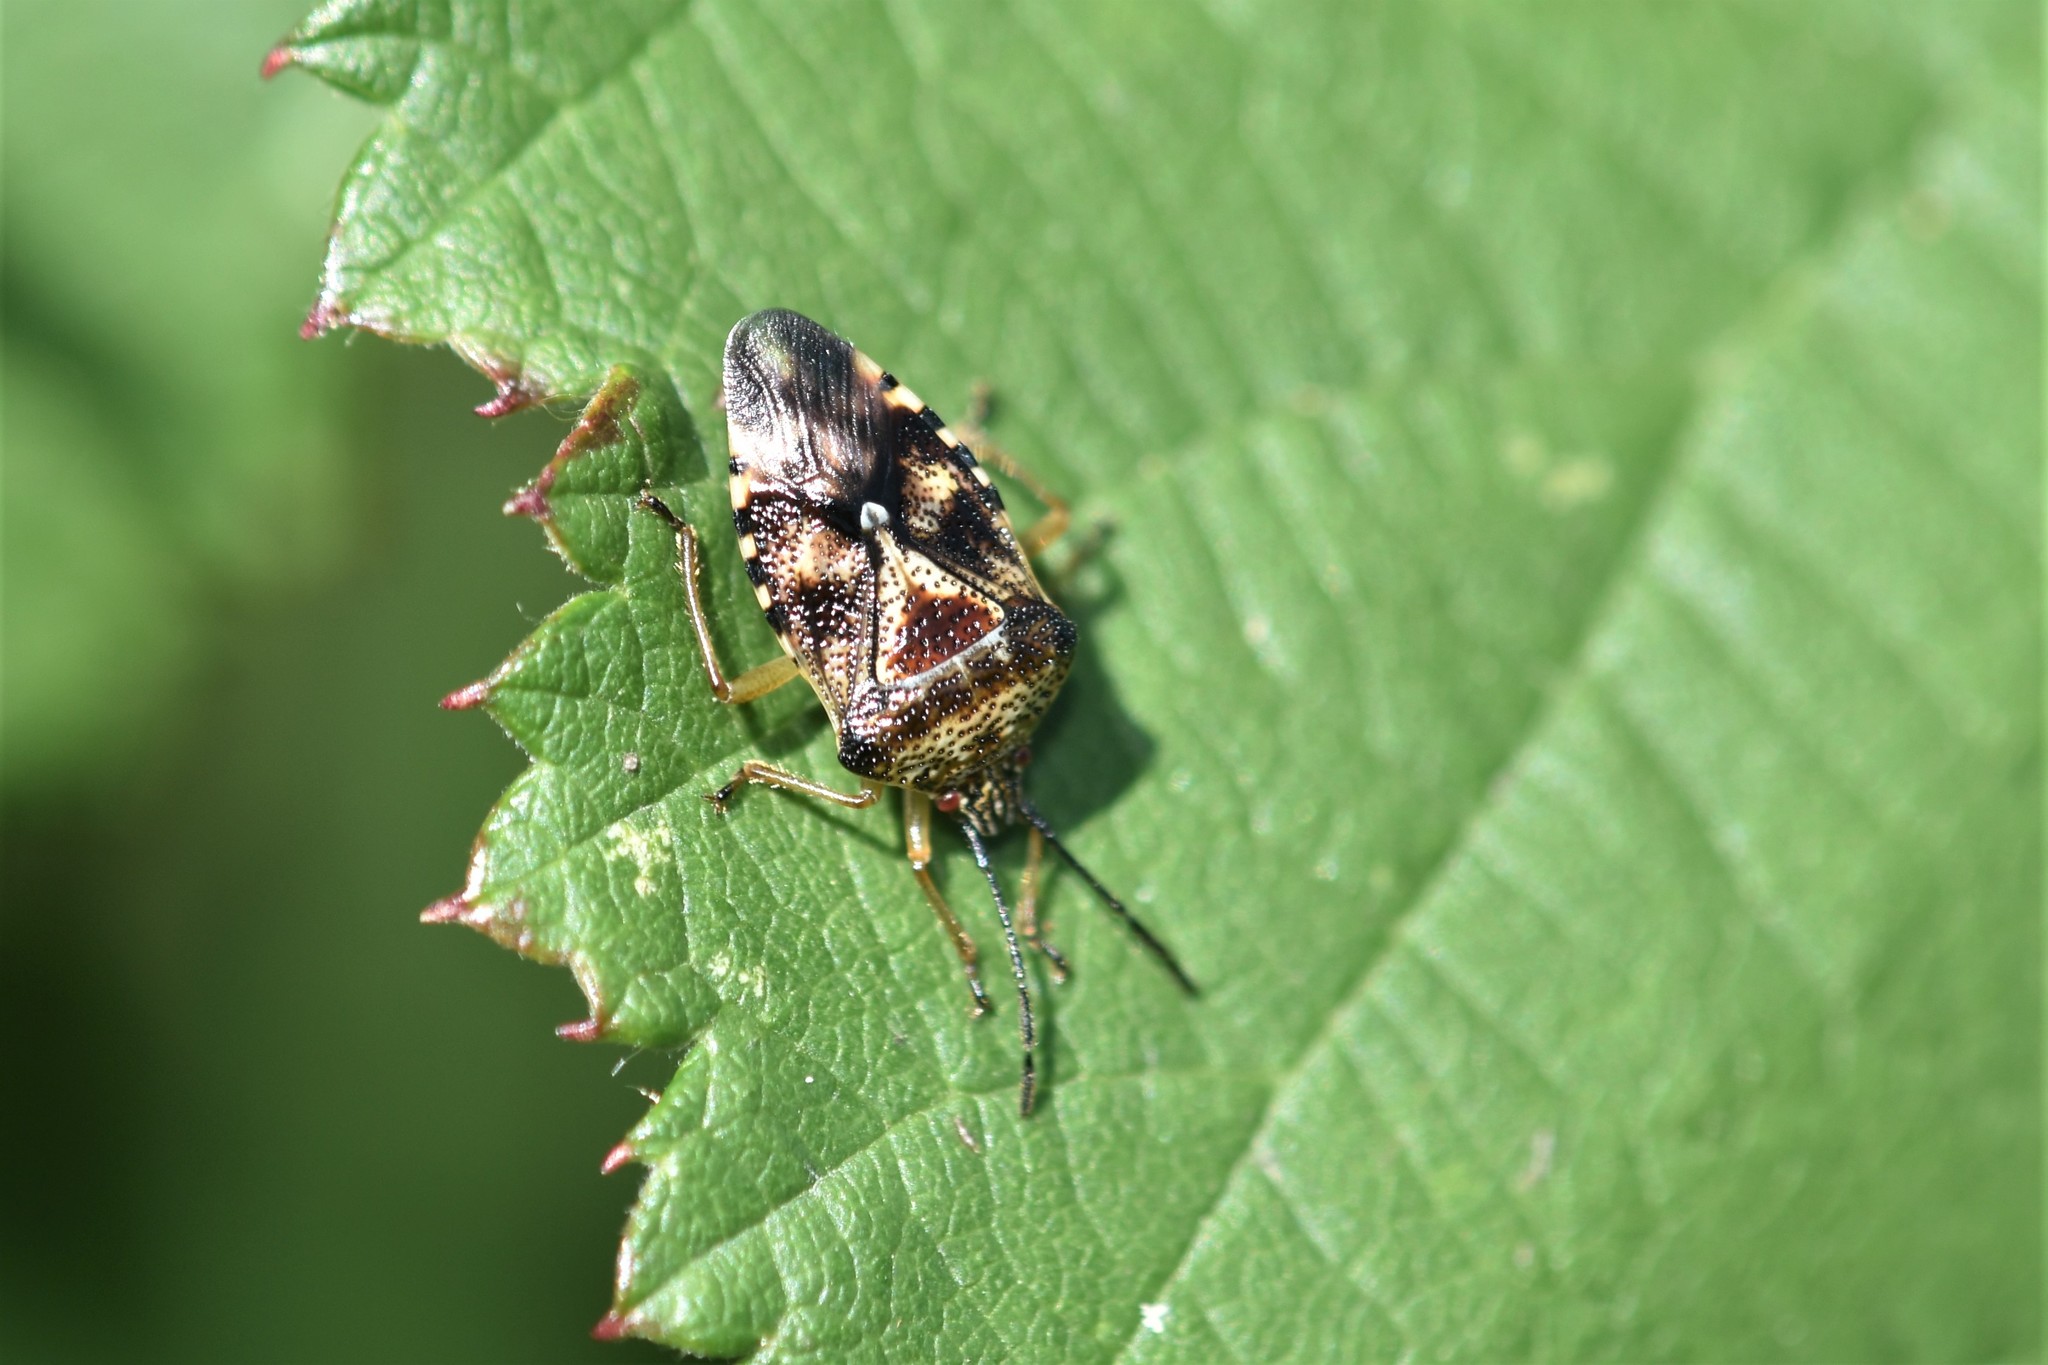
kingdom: Animalia
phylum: Arthropoda
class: Insecta
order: Hemiptera
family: Acanthosomatidae
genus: Elasmucha
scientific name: Elasmucha lateralis
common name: Shield bug
